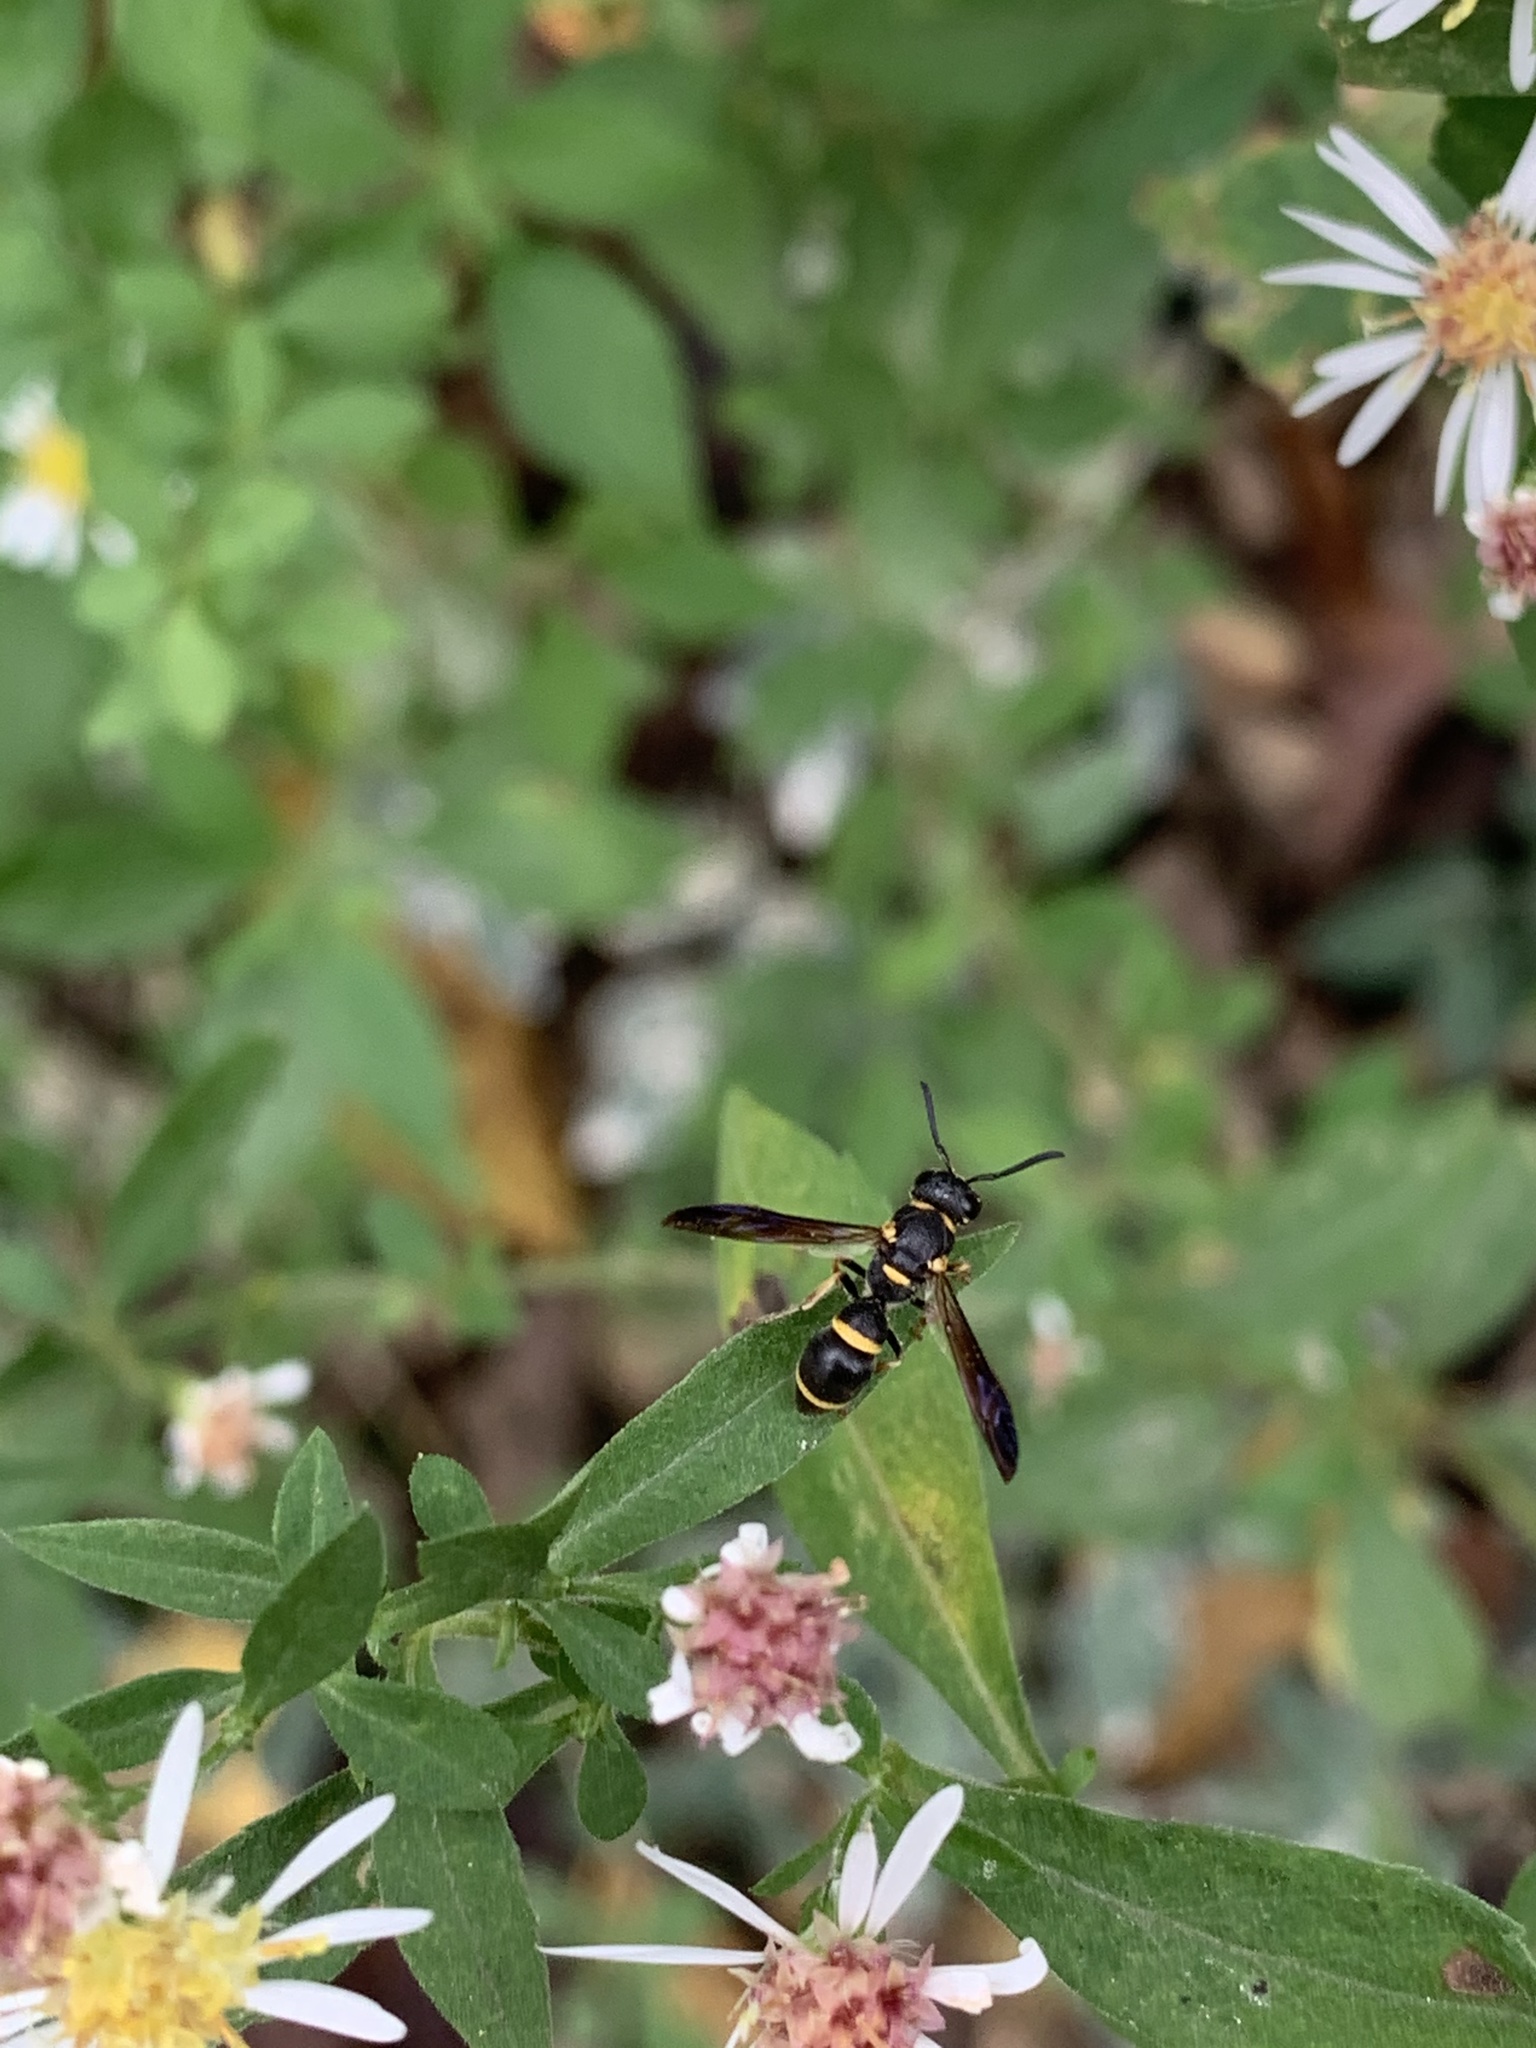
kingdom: Animalia
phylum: Arthropoda
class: Insecta
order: Hymenoptera
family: Eumenidae
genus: Parancistrocerus
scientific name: Parancistrocerus perennis
